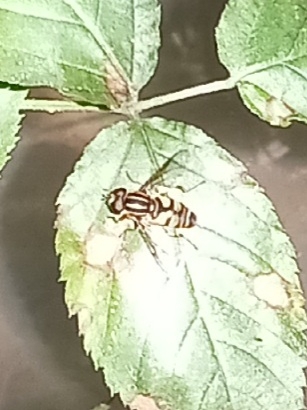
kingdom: Animalia
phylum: Arthropoda
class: Insecta
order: Diptera
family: Syrphidae
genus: Helophilus
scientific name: Helophilus fasciatus
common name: Narrow-headed marsh fly
